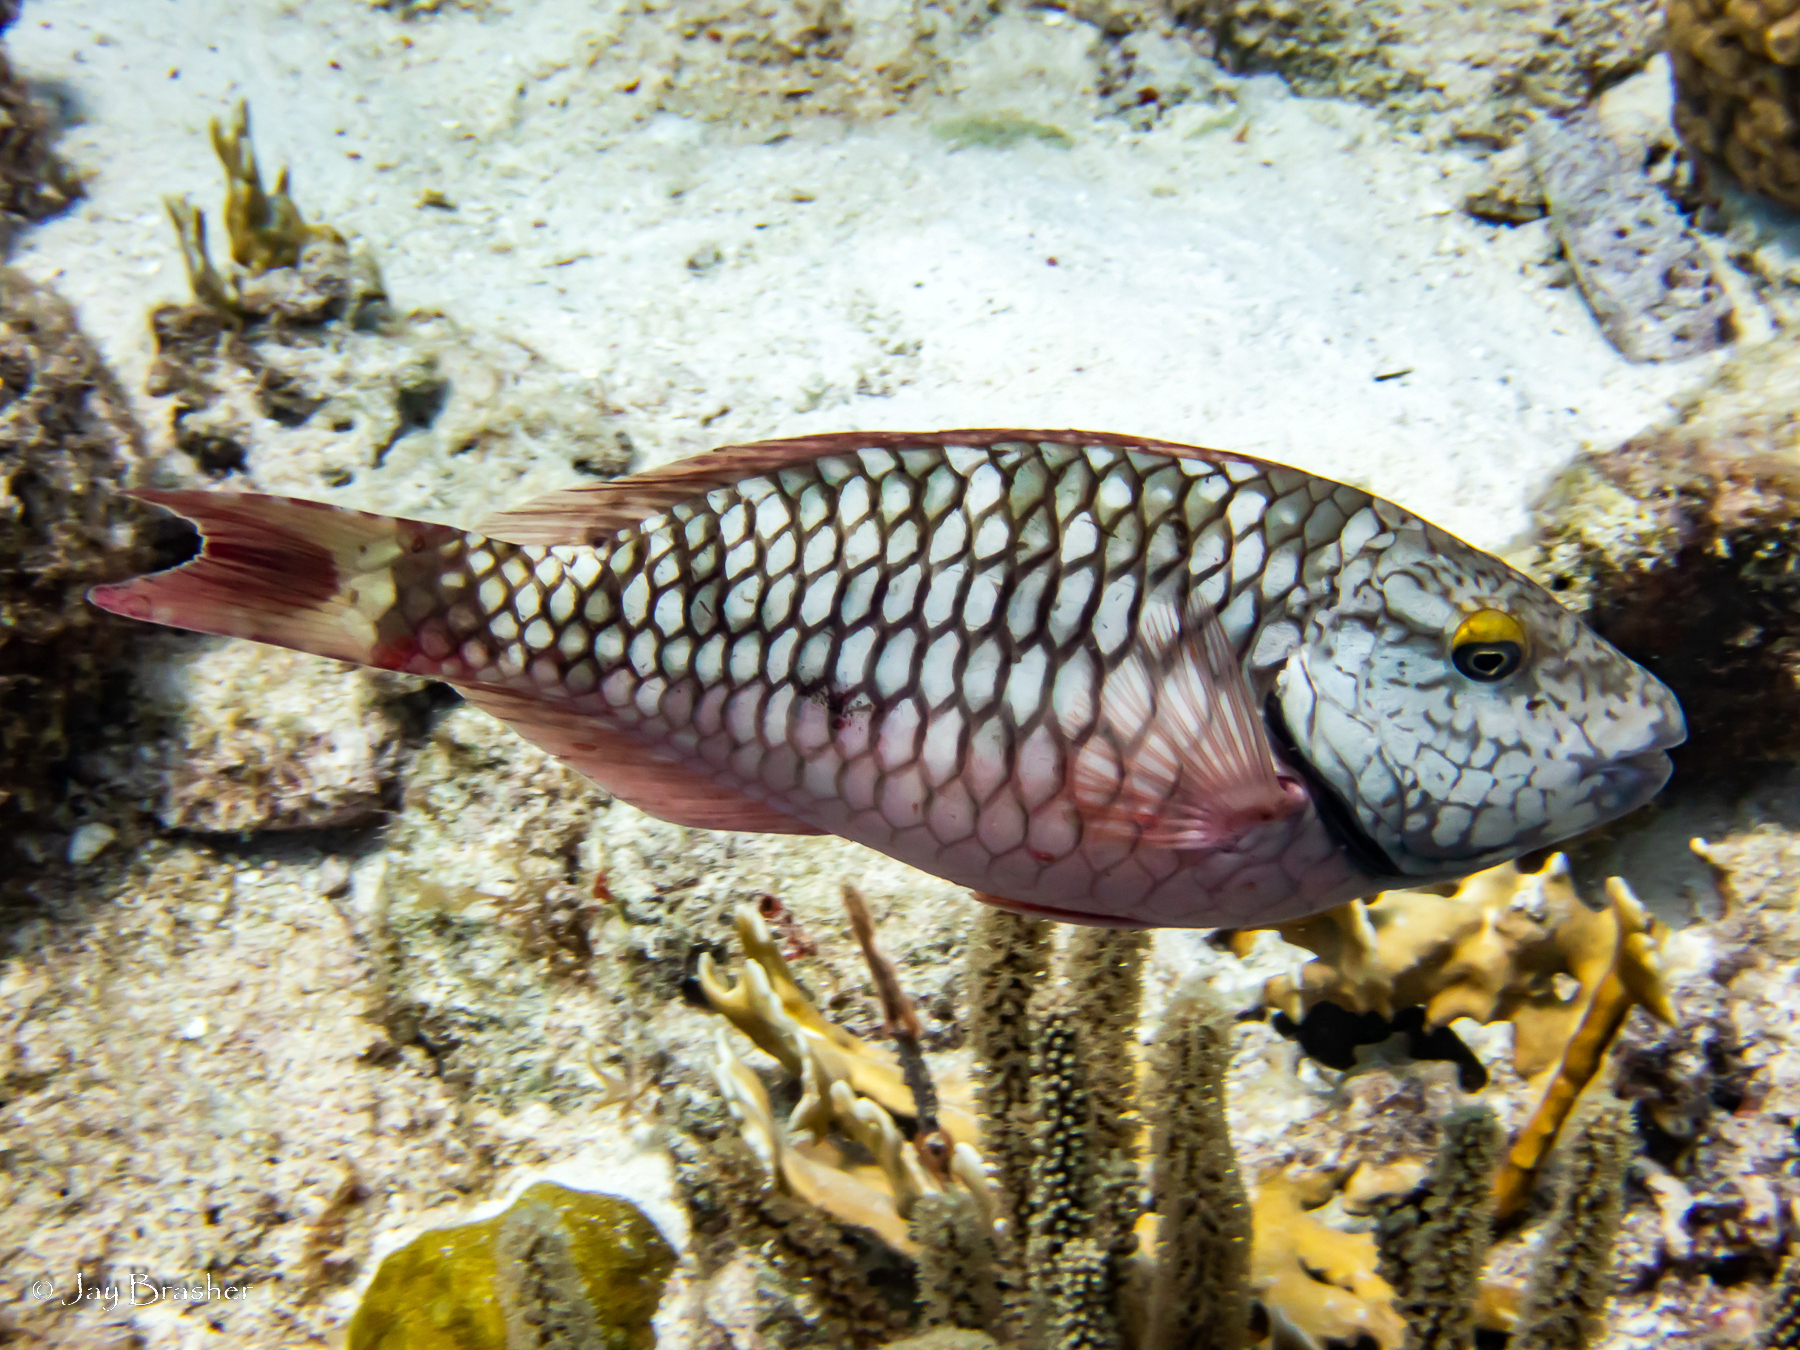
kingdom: Animalia
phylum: Chordata
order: Perciformes
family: Scaridae
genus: Sparisoma
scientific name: Sparisoma viride
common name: Stoplight parrotfish
